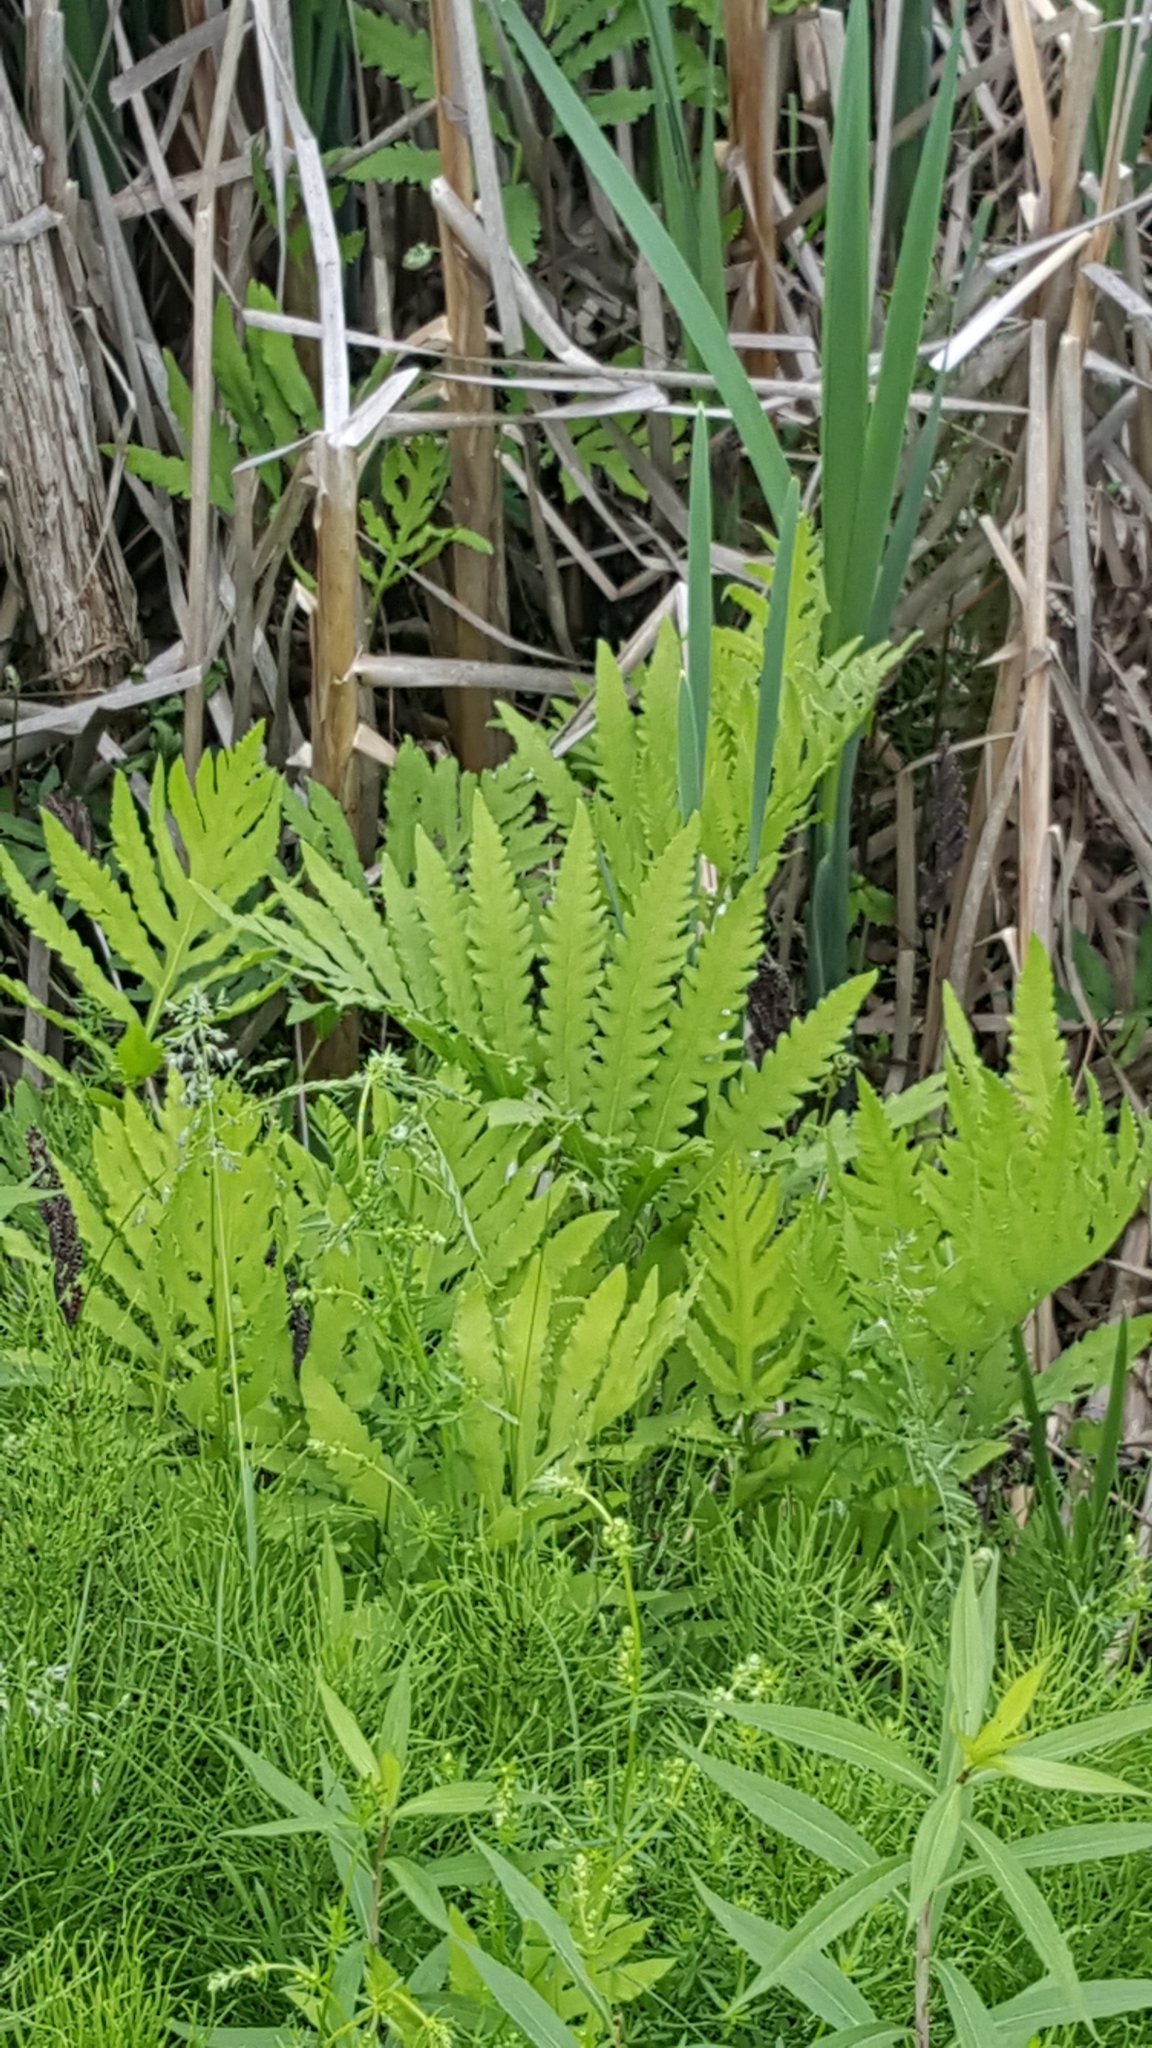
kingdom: Plantae
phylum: Tracheophyta
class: Polypodiopsida
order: Polypodiales
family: Onocleaceae
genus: Onoclea
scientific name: Onoclea sensibilis
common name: Sensitive fern
